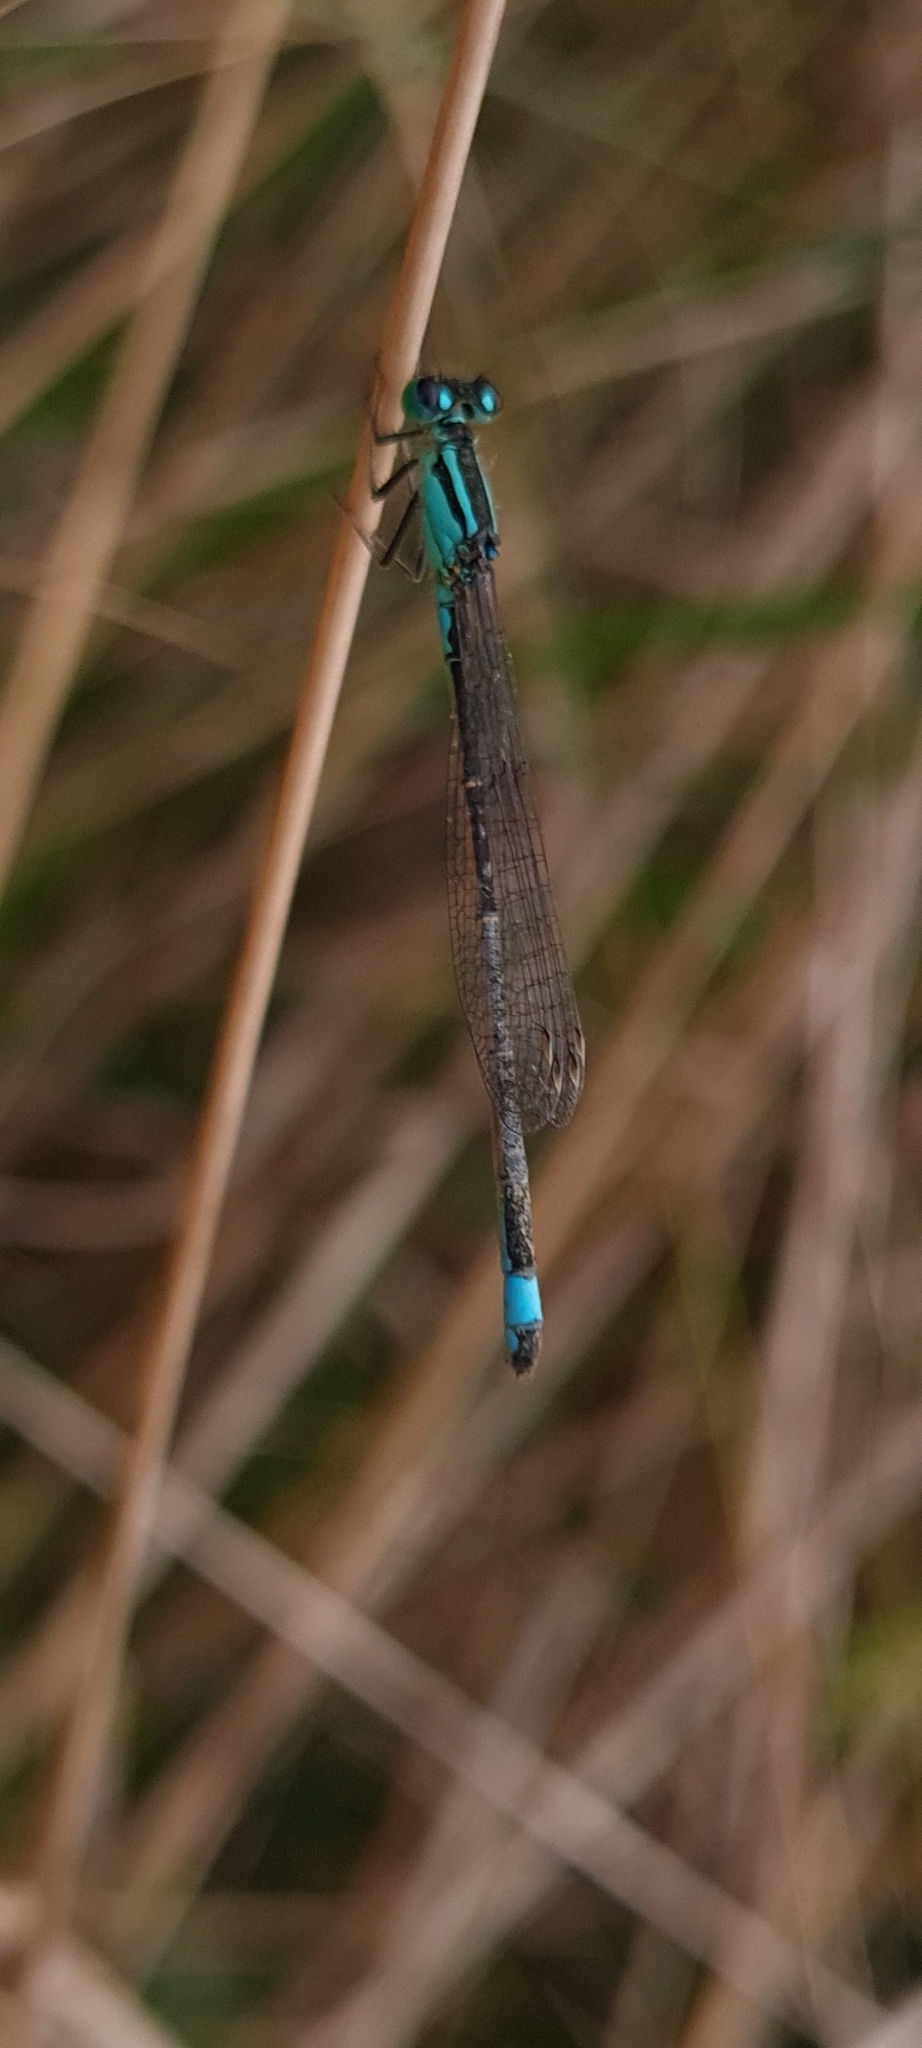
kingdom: Animalia
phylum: Arthropoda
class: Insecta
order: Odonata
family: Coenagrionidae
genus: Ischnura
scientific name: Ischnura elegans
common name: Blue-tailed damselfly
